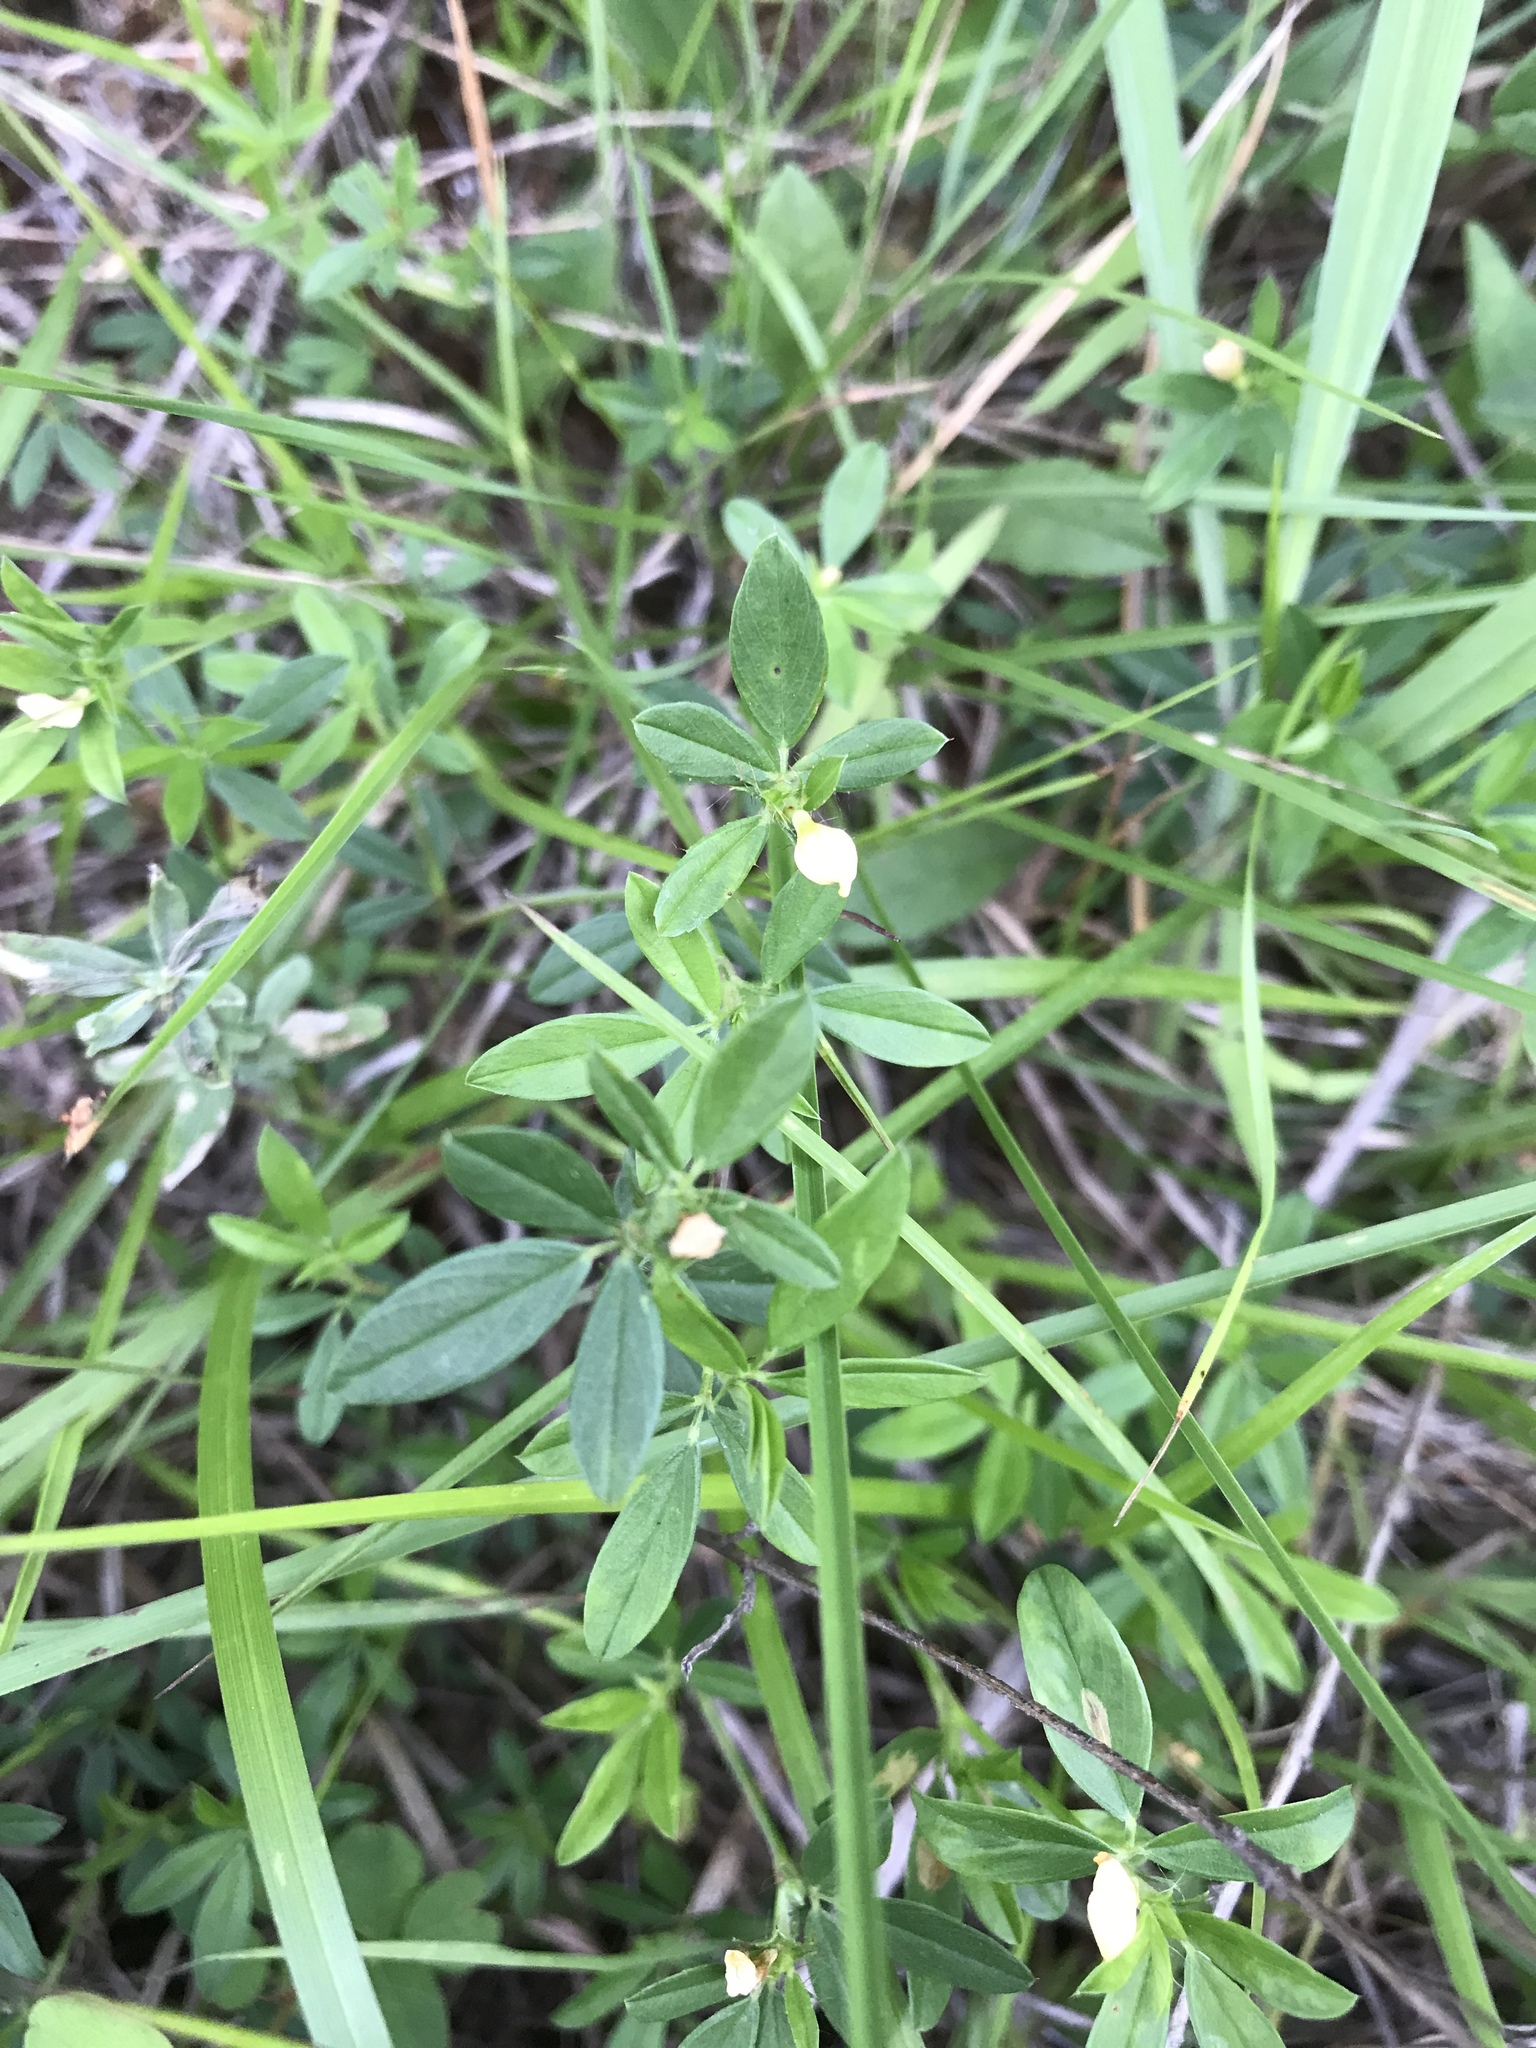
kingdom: Plantae
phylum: Tracheophyta
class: Magnoliopsida
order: Fabales
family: Fabaceae
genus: Stylosanthes
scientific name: Stylosanthes biflora
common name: Two-flower pencil-flower
